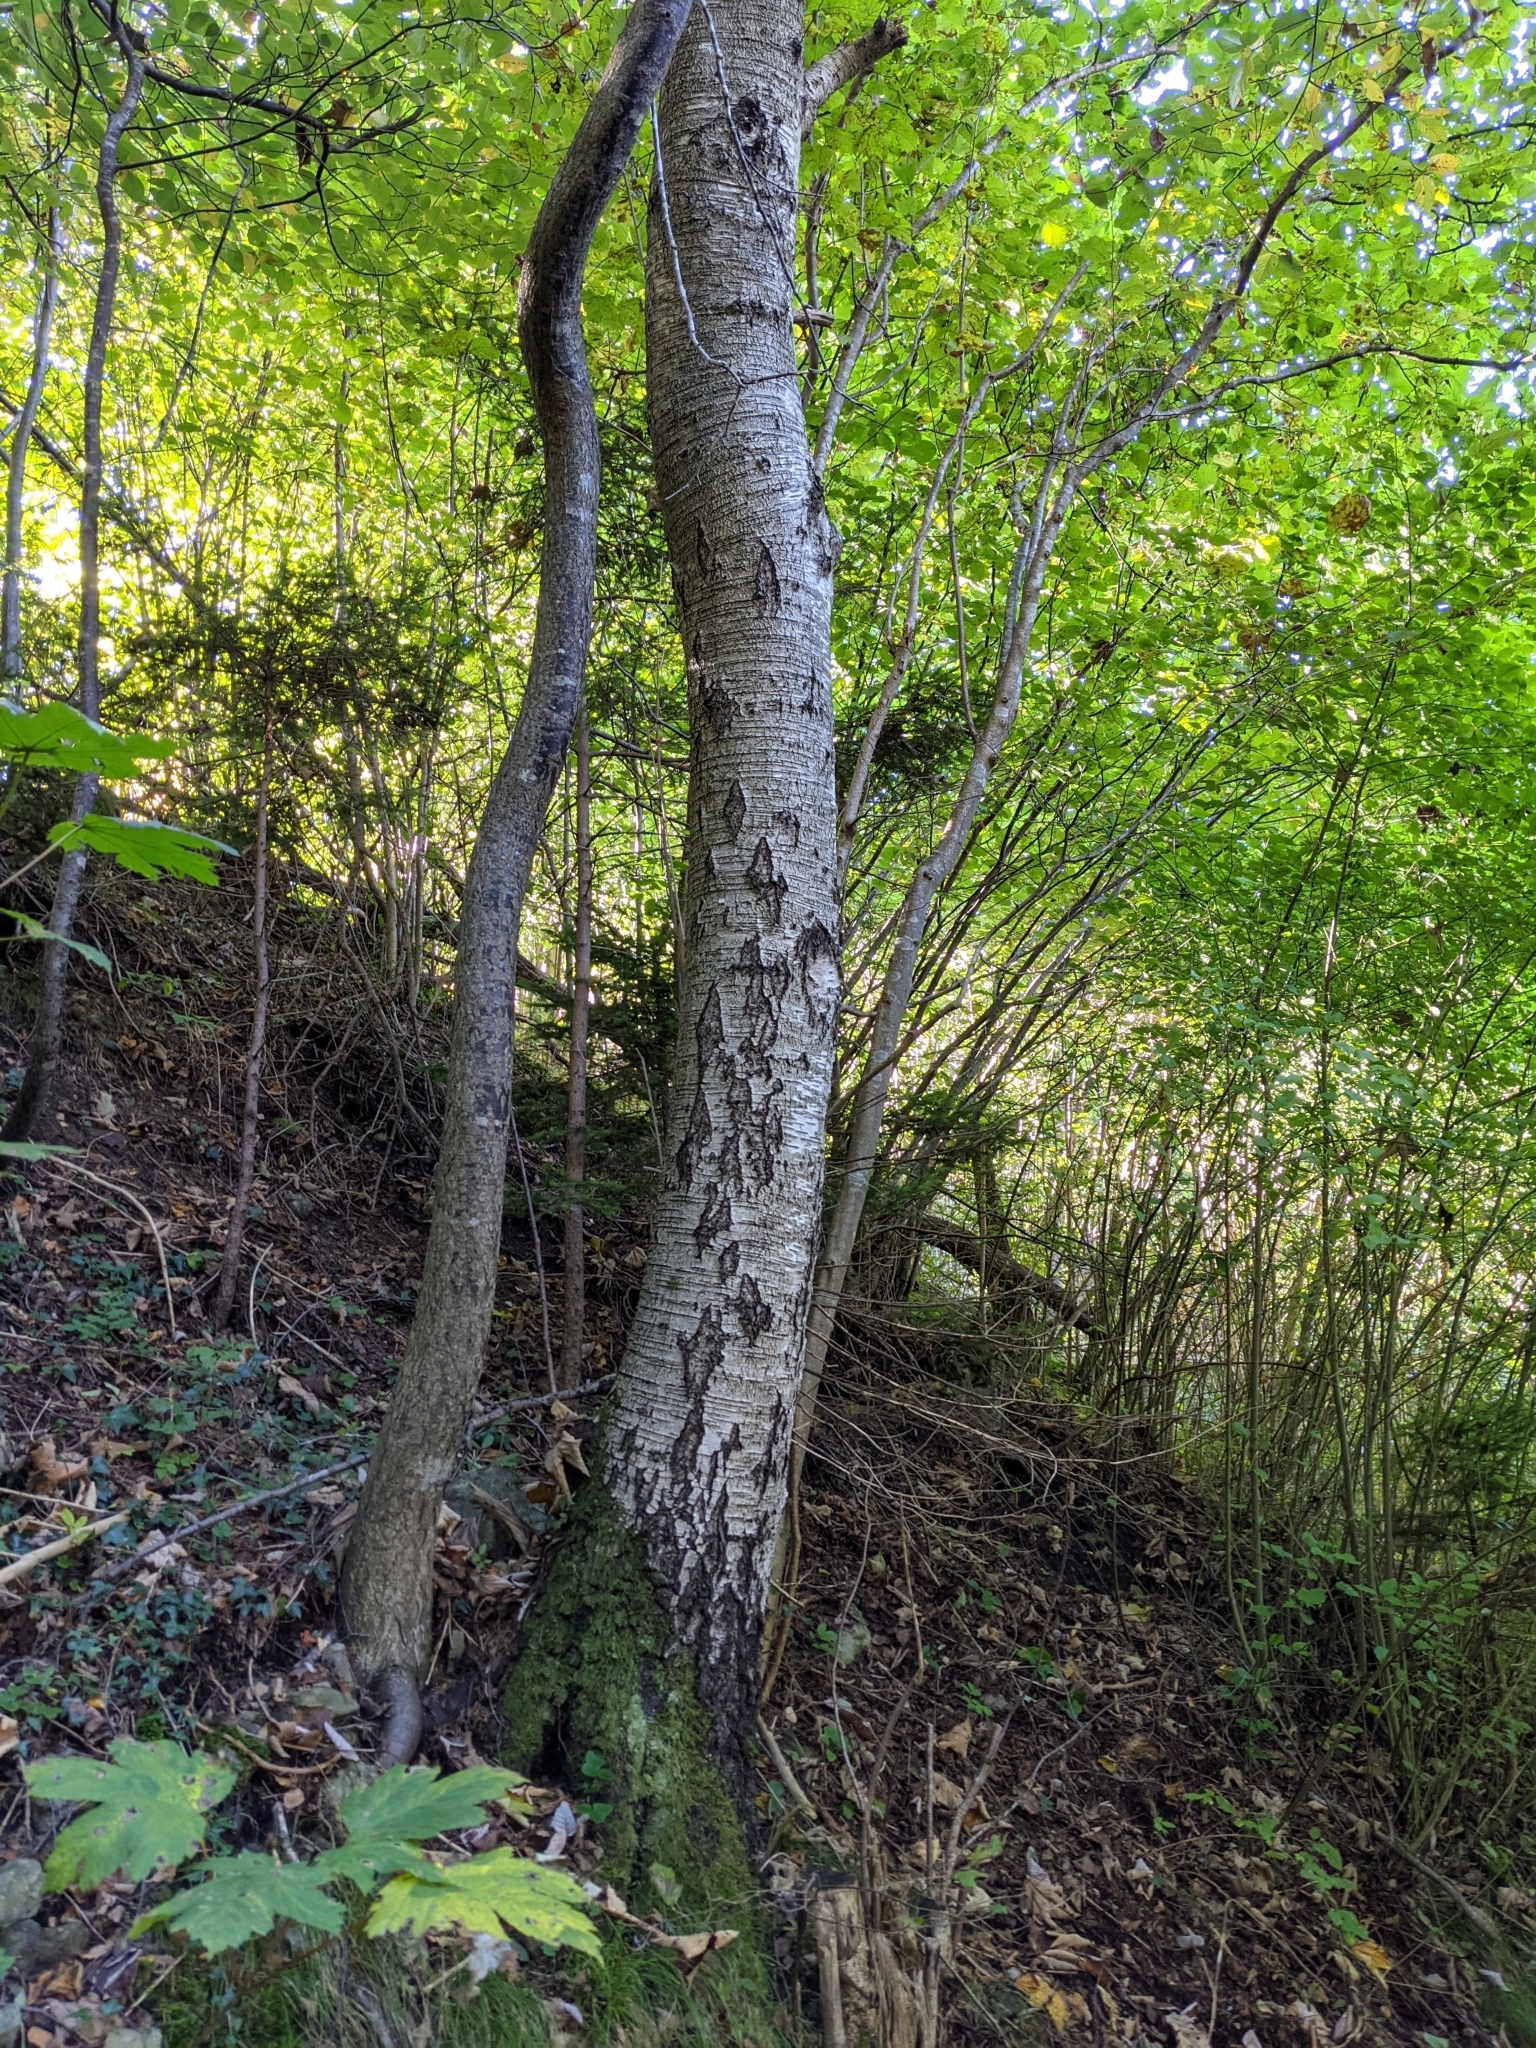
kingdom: Plantae
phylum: Tracheophyta
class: Magnoliopsida
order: Fagales
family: Betulaceae
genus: Betula
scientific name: Betula pendula
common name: Silver birch
